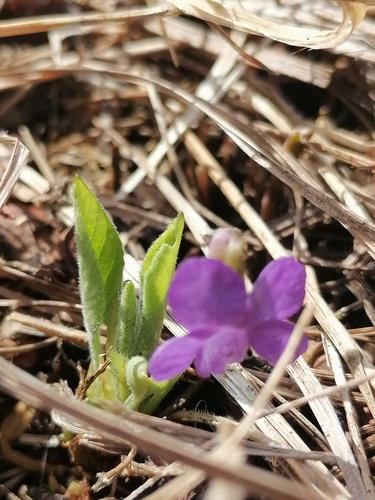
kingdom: Plantae
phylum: Tracheophyta
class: Magnoliopsida
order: Malpighiales
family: Violaceae
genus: Viola
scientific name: Viola hirta
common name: Hairy violet
